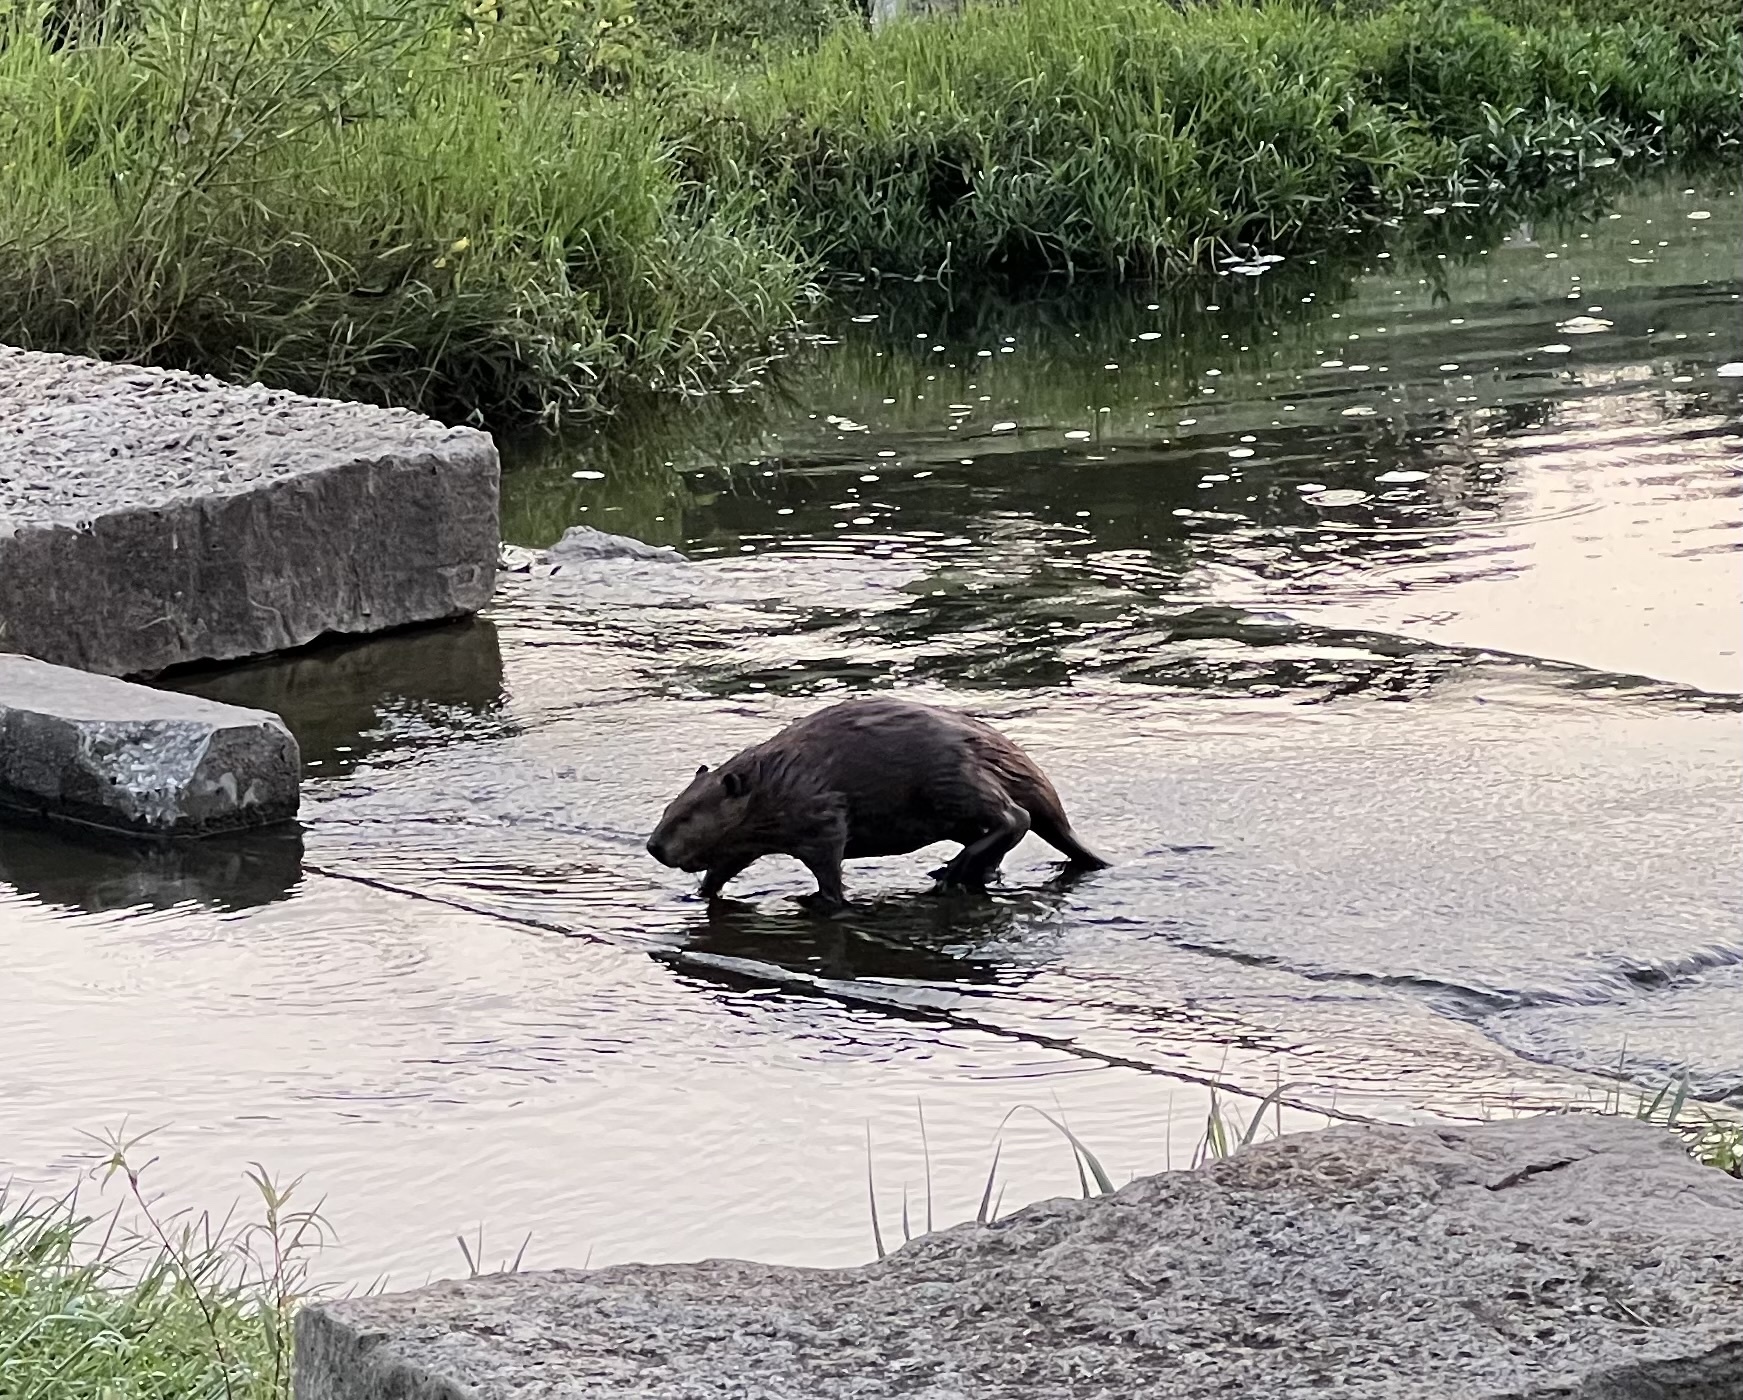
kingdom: Animalia
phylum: Chordata
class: Mammalia
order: Rodentia
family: Castoridae
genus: Castor
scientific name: Castor canadensis
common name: American beaver
